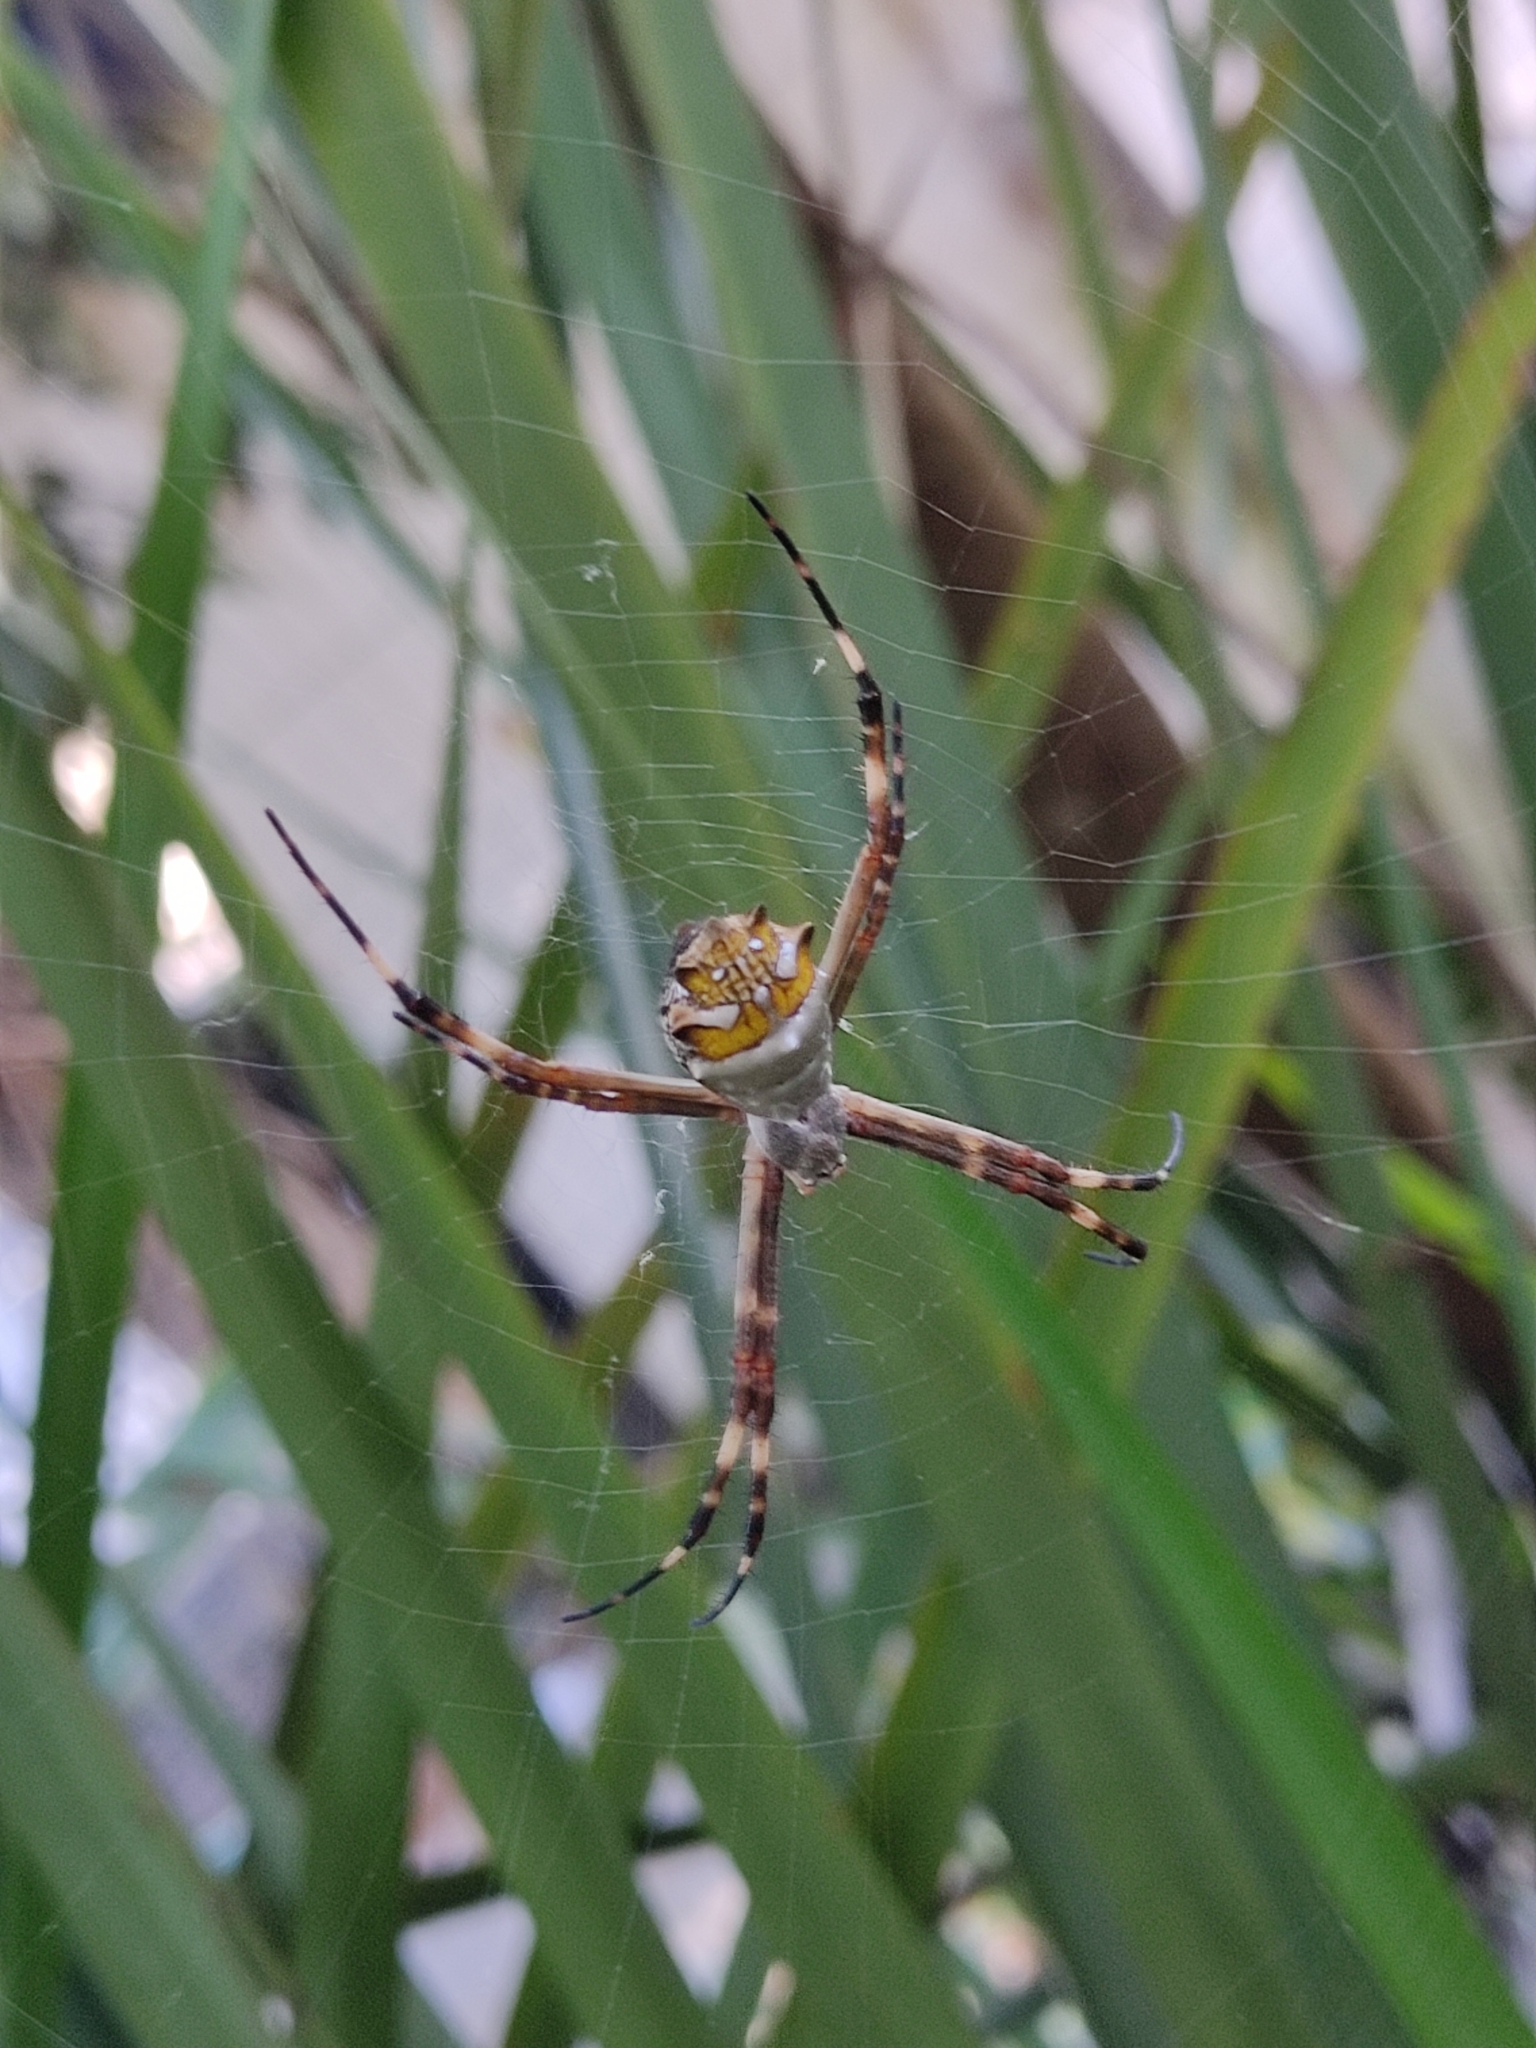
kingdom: Animalia
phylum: Arthropoda
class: Arachnida
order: Araneae
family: Araneidae
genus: Argiope
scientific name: Argiope argentata
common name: Orb weavers
